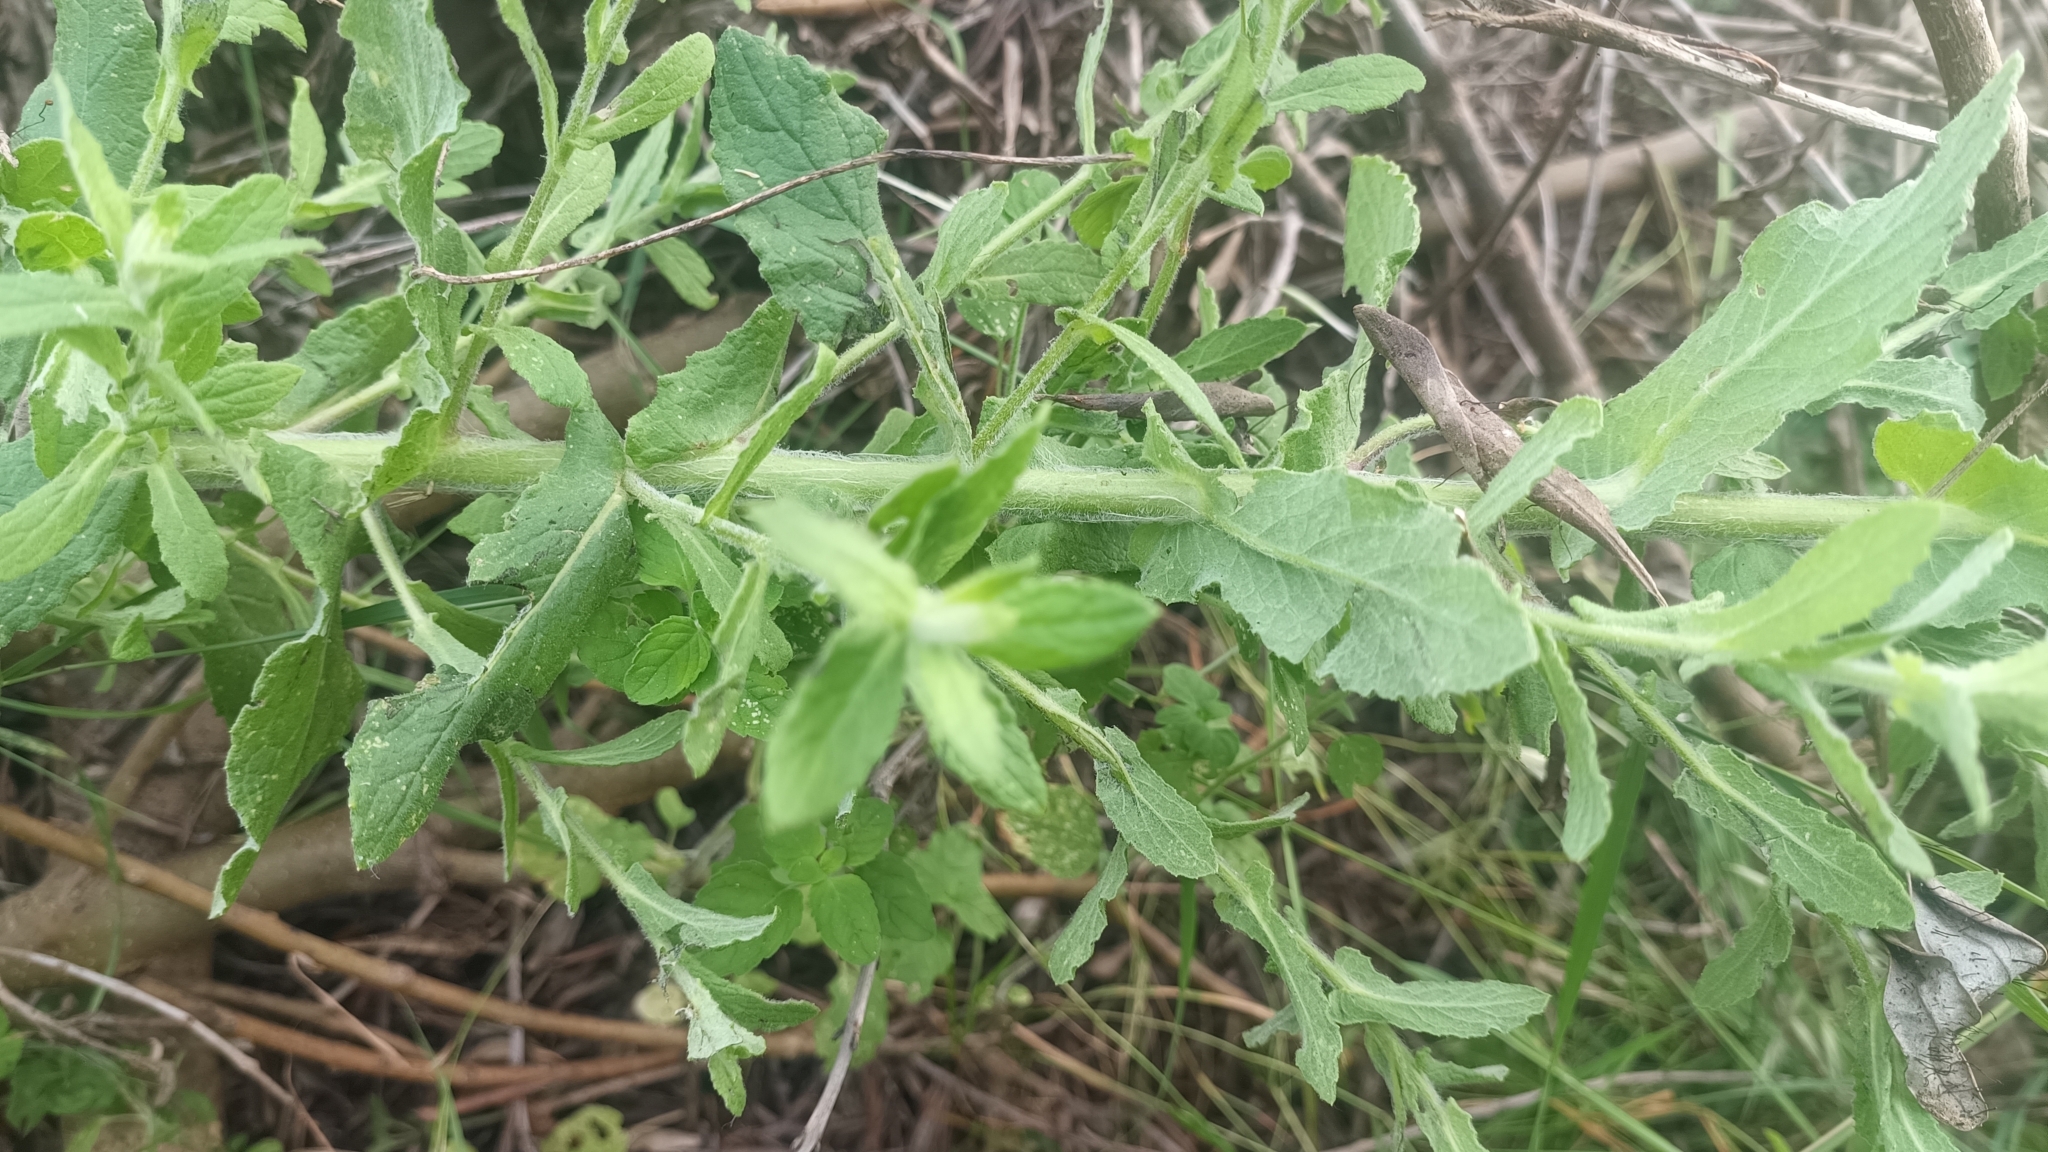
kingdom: Plantae
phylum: Tracheophyta
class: Magnoliopsida
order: Asterales
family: Asteraceae
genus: Pulicaria
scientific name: Pulicaria dysenterica
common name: Common fleabane
